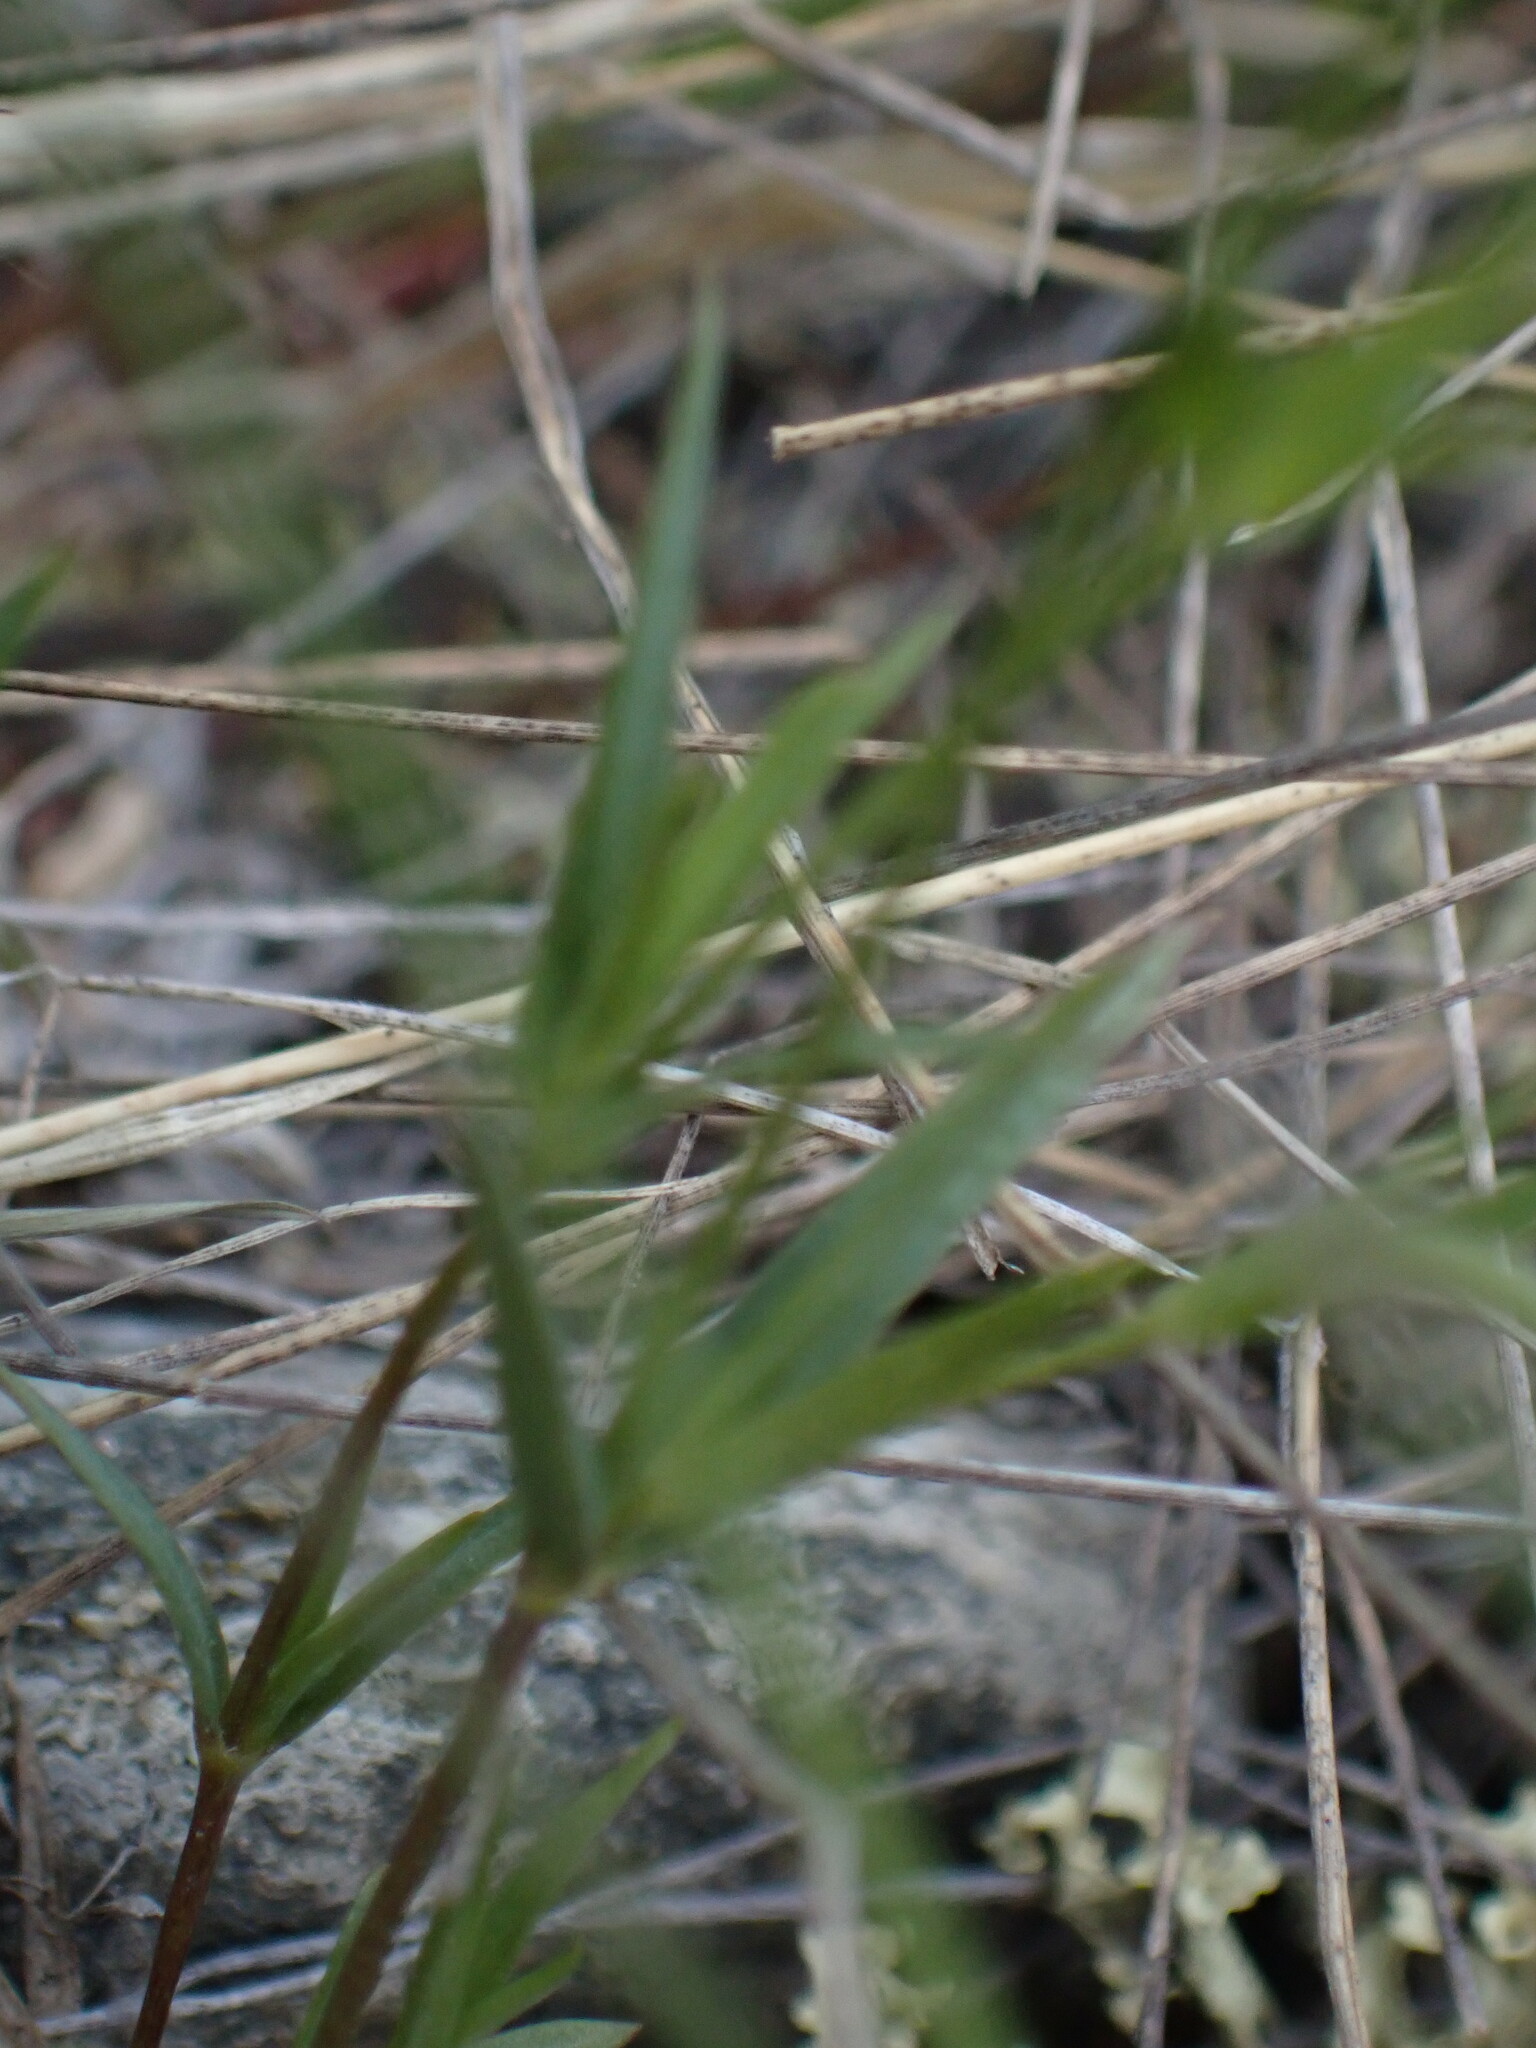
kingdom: Plantae
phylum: Tracheophyta
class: Magnoliopsida
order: Caryophyllales
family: Caryophyllaceae
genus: Stellaria
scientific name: Stellaria longipes
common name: Goldie's starwort
